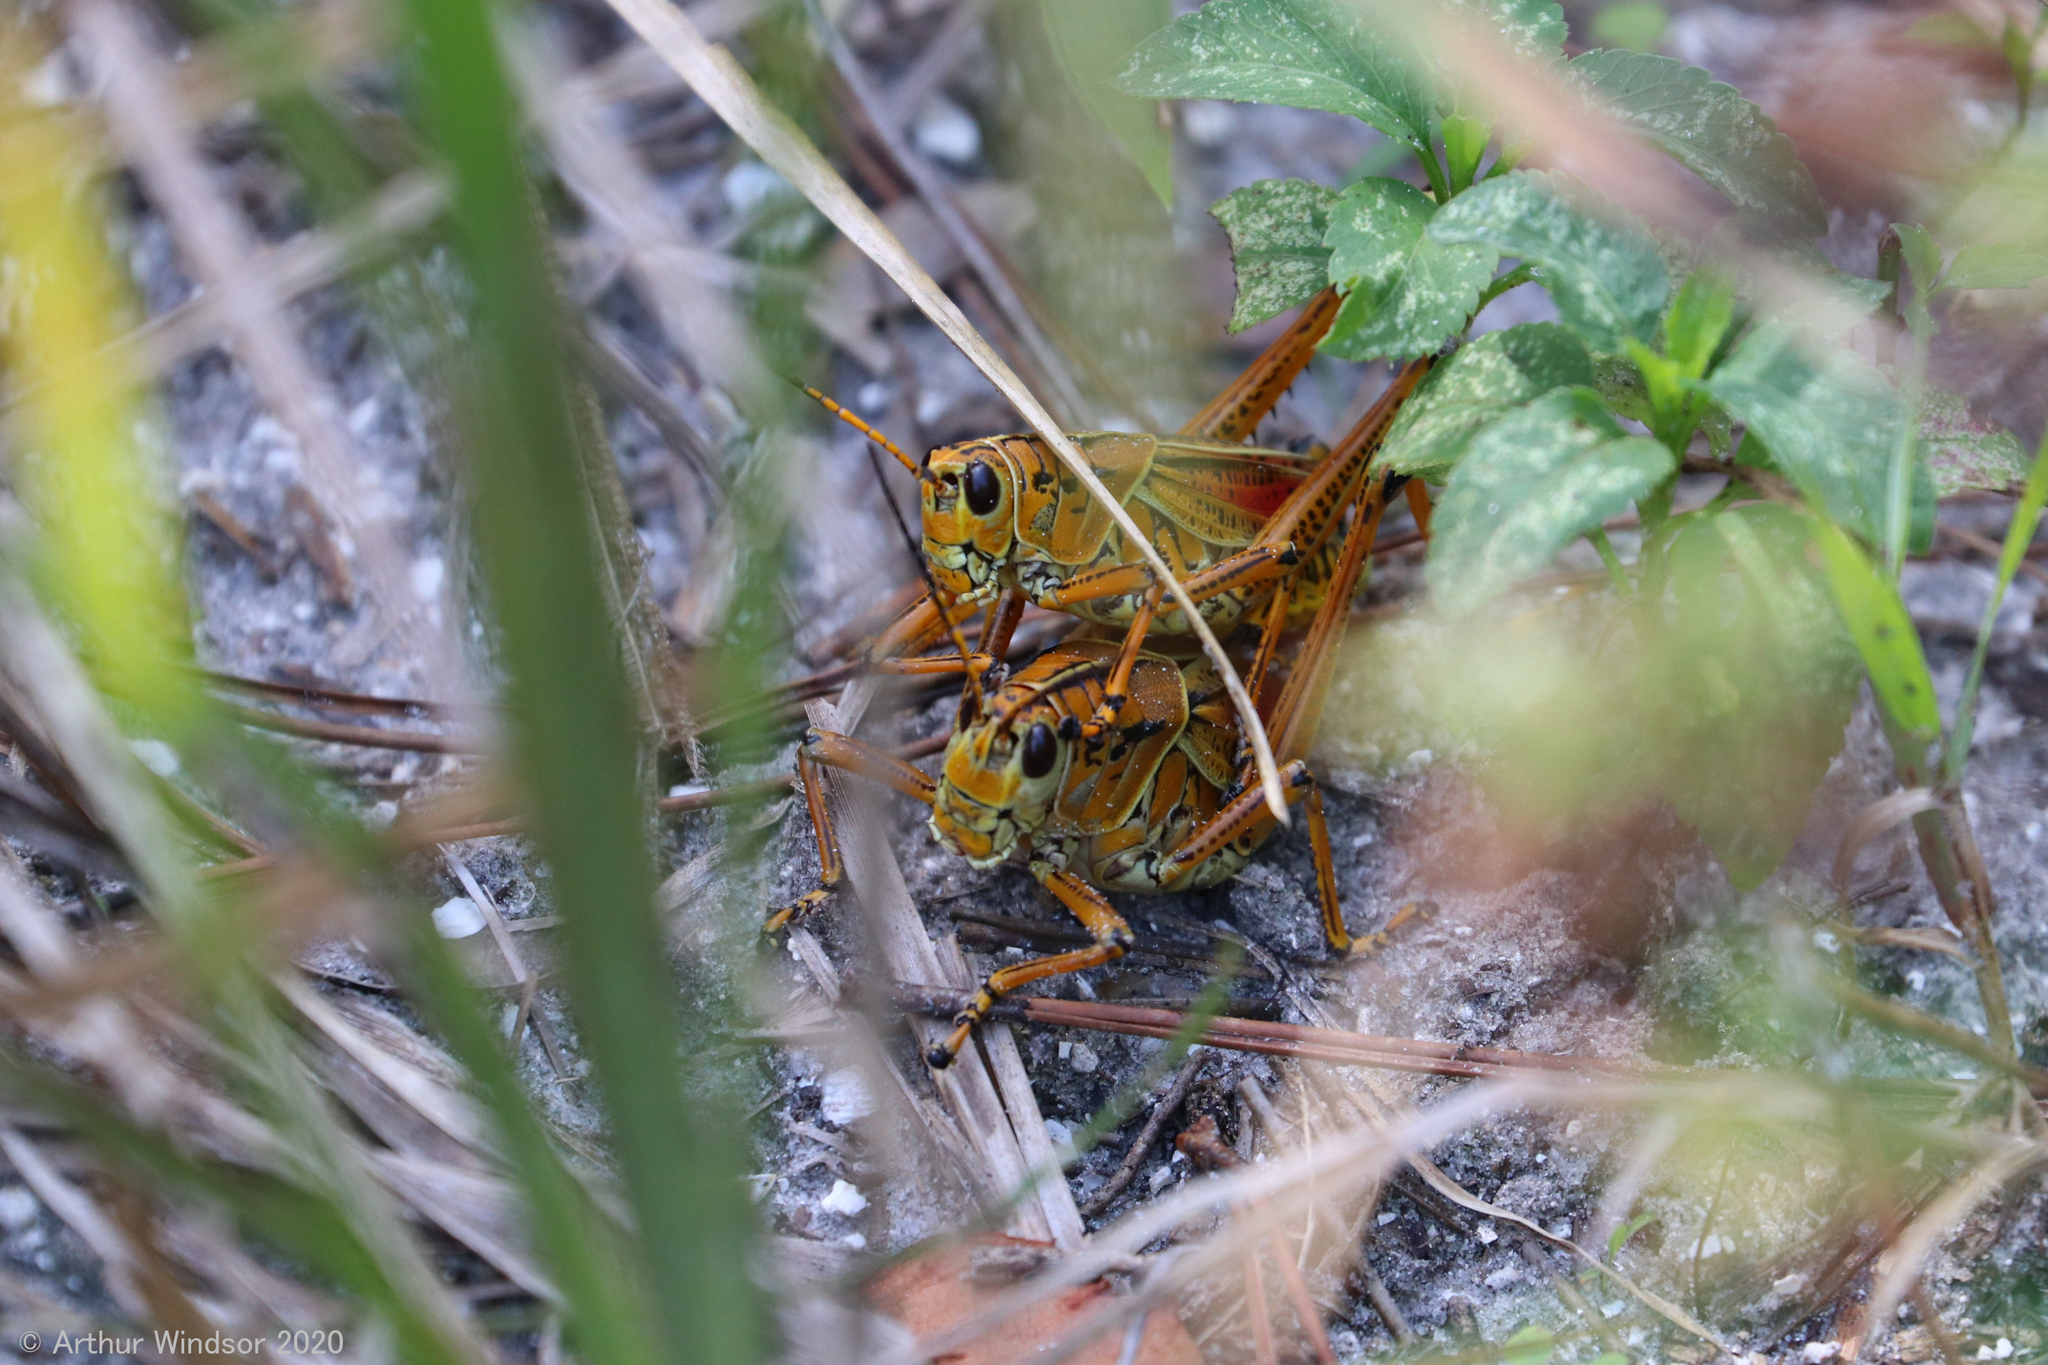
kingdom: Animalia
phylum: Arthropoda
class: Insecta
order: Orthoptera
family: Romaleidae
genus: Romalea
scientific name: Romalea microptera
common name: Eastern lubber grasshopper
